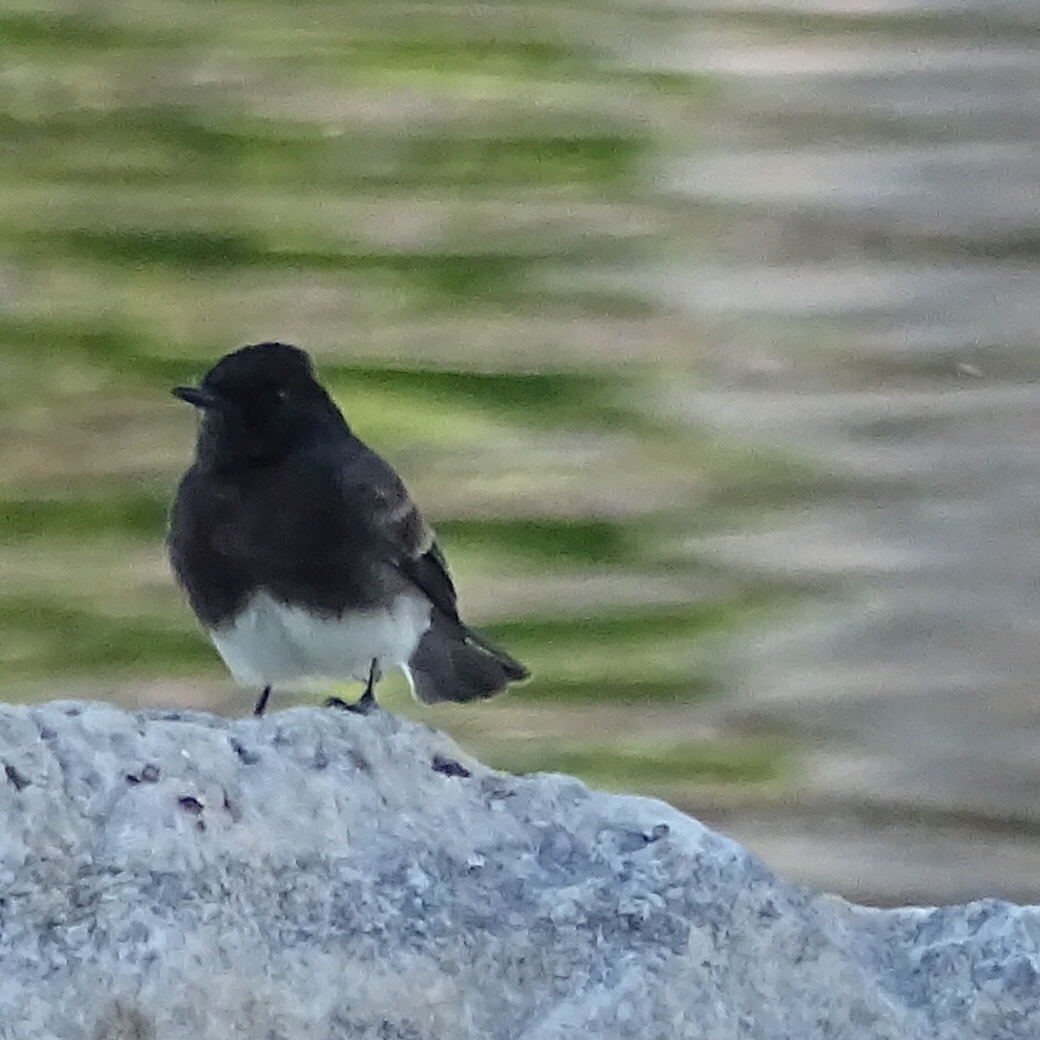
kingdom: Animalia
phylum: Chordata
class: Aves
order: Passeriformes
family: Tyrannidae
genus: Sayornis
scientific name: Sayornis nigricans
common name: Black phoebe
